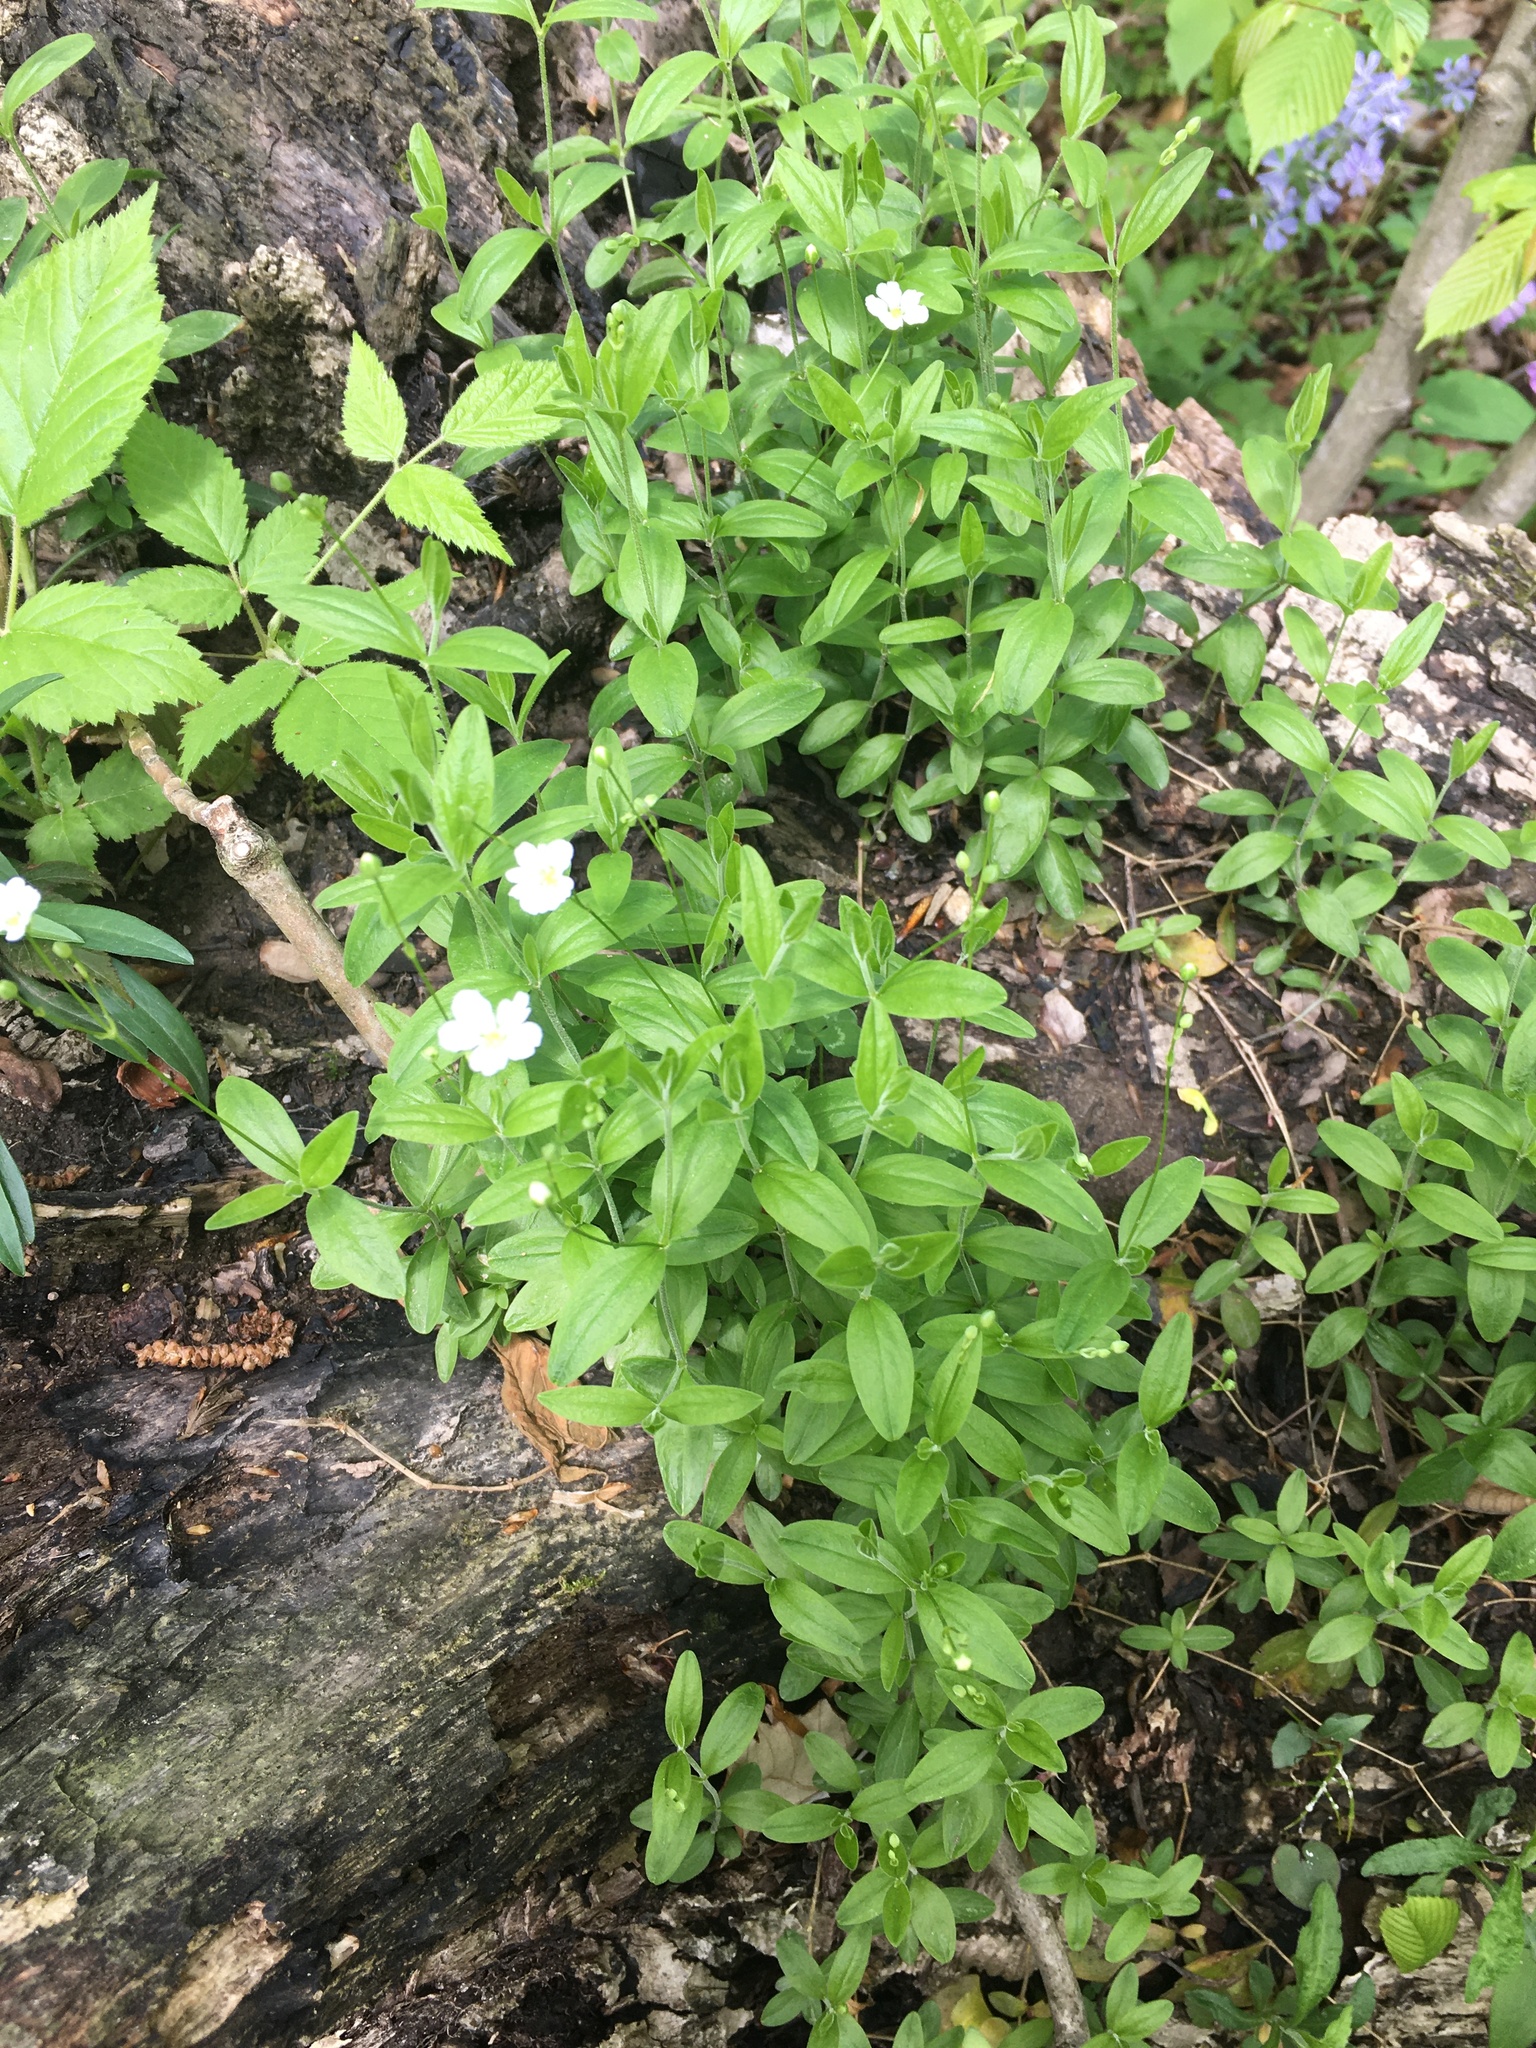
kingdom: Plantae
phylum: Tracheophyta
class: Magnoliopsida
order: Caryophyllales
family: Caryophyllaceae
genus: Moehringia
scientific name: Moehringia lateriflora
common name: Blunt-leaved sandwort
